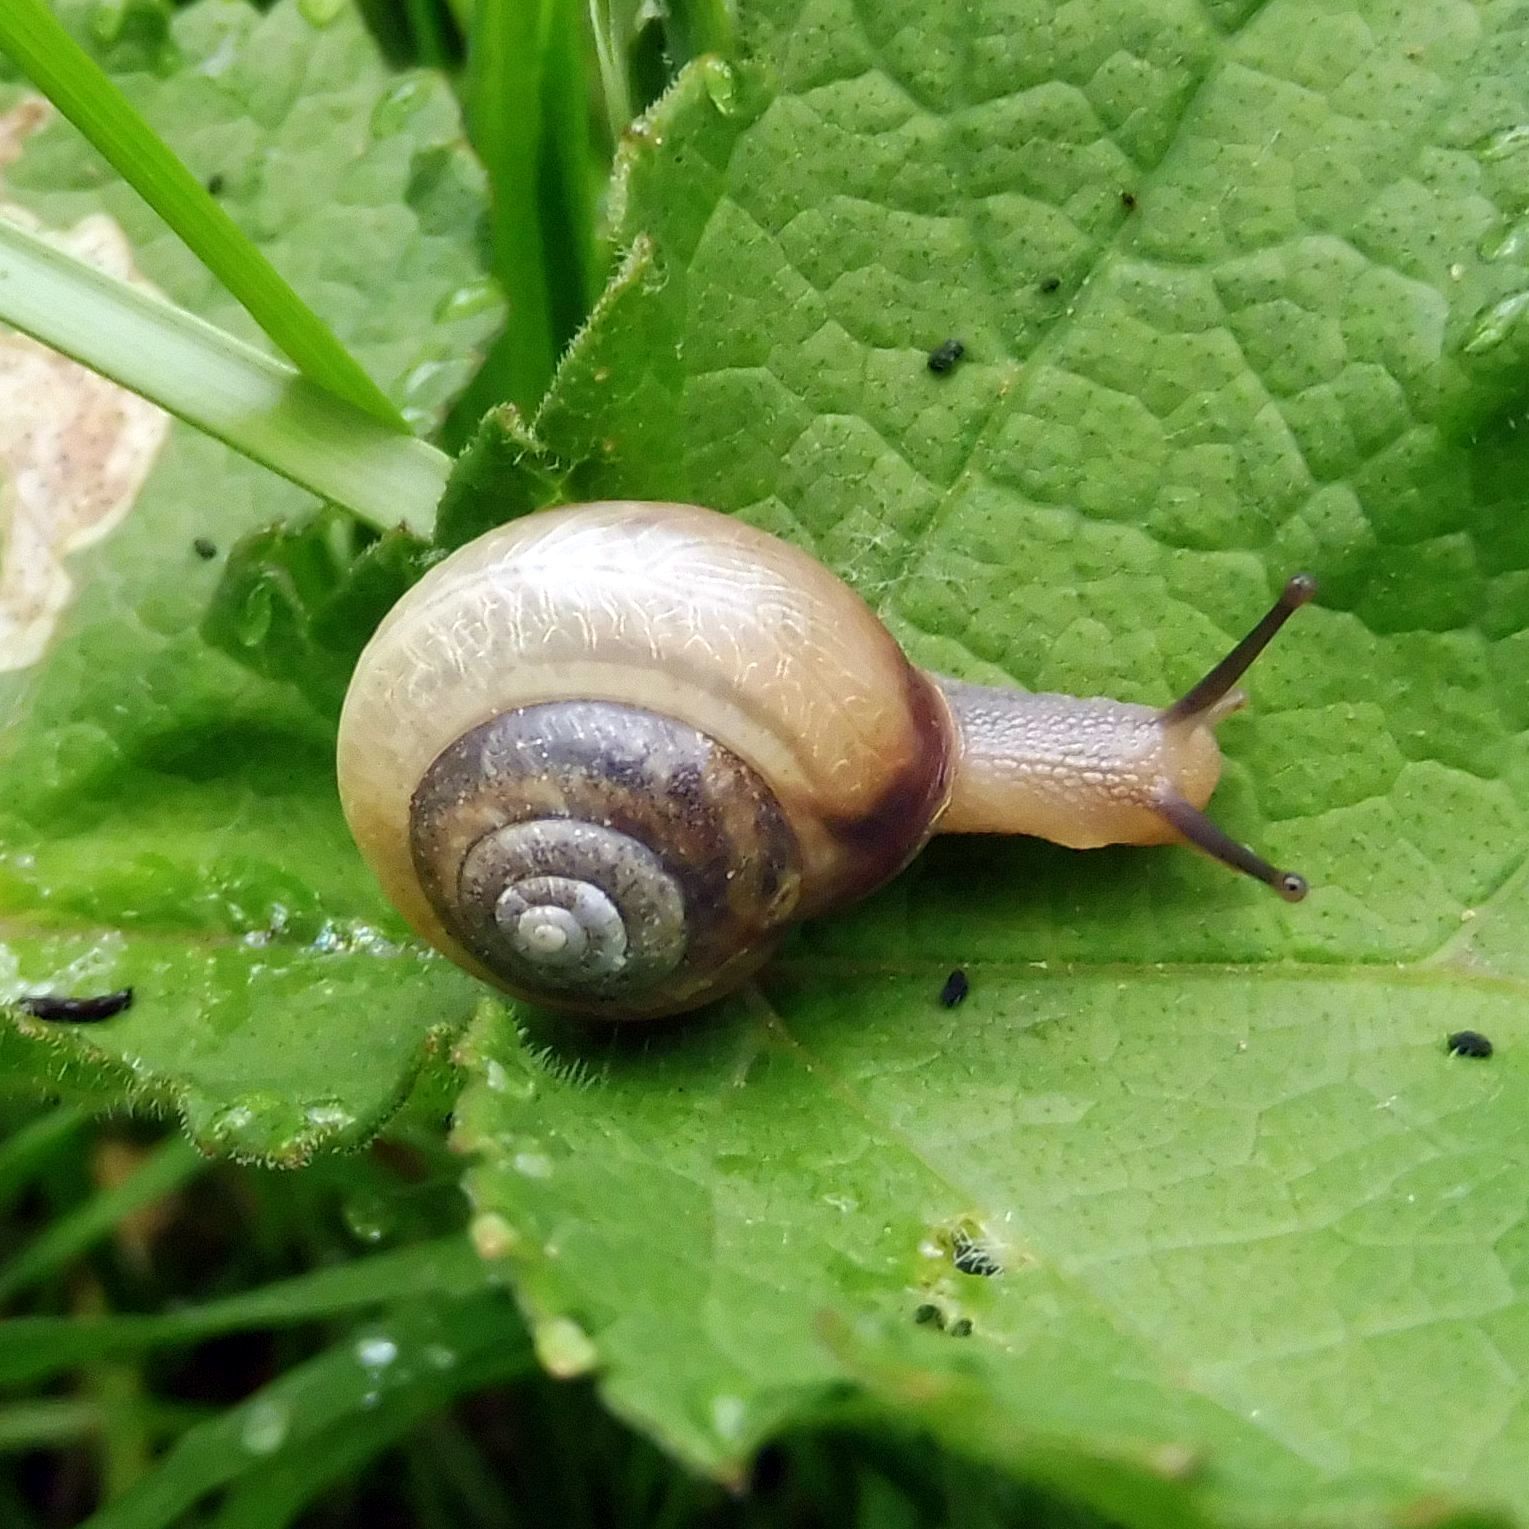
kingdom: Animalia
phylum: Mollusca
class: Gastropoda
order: Stylommatophora
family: Hygromiidae
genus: Monacha
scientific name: Monacha cantiana
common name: Kentish snail
